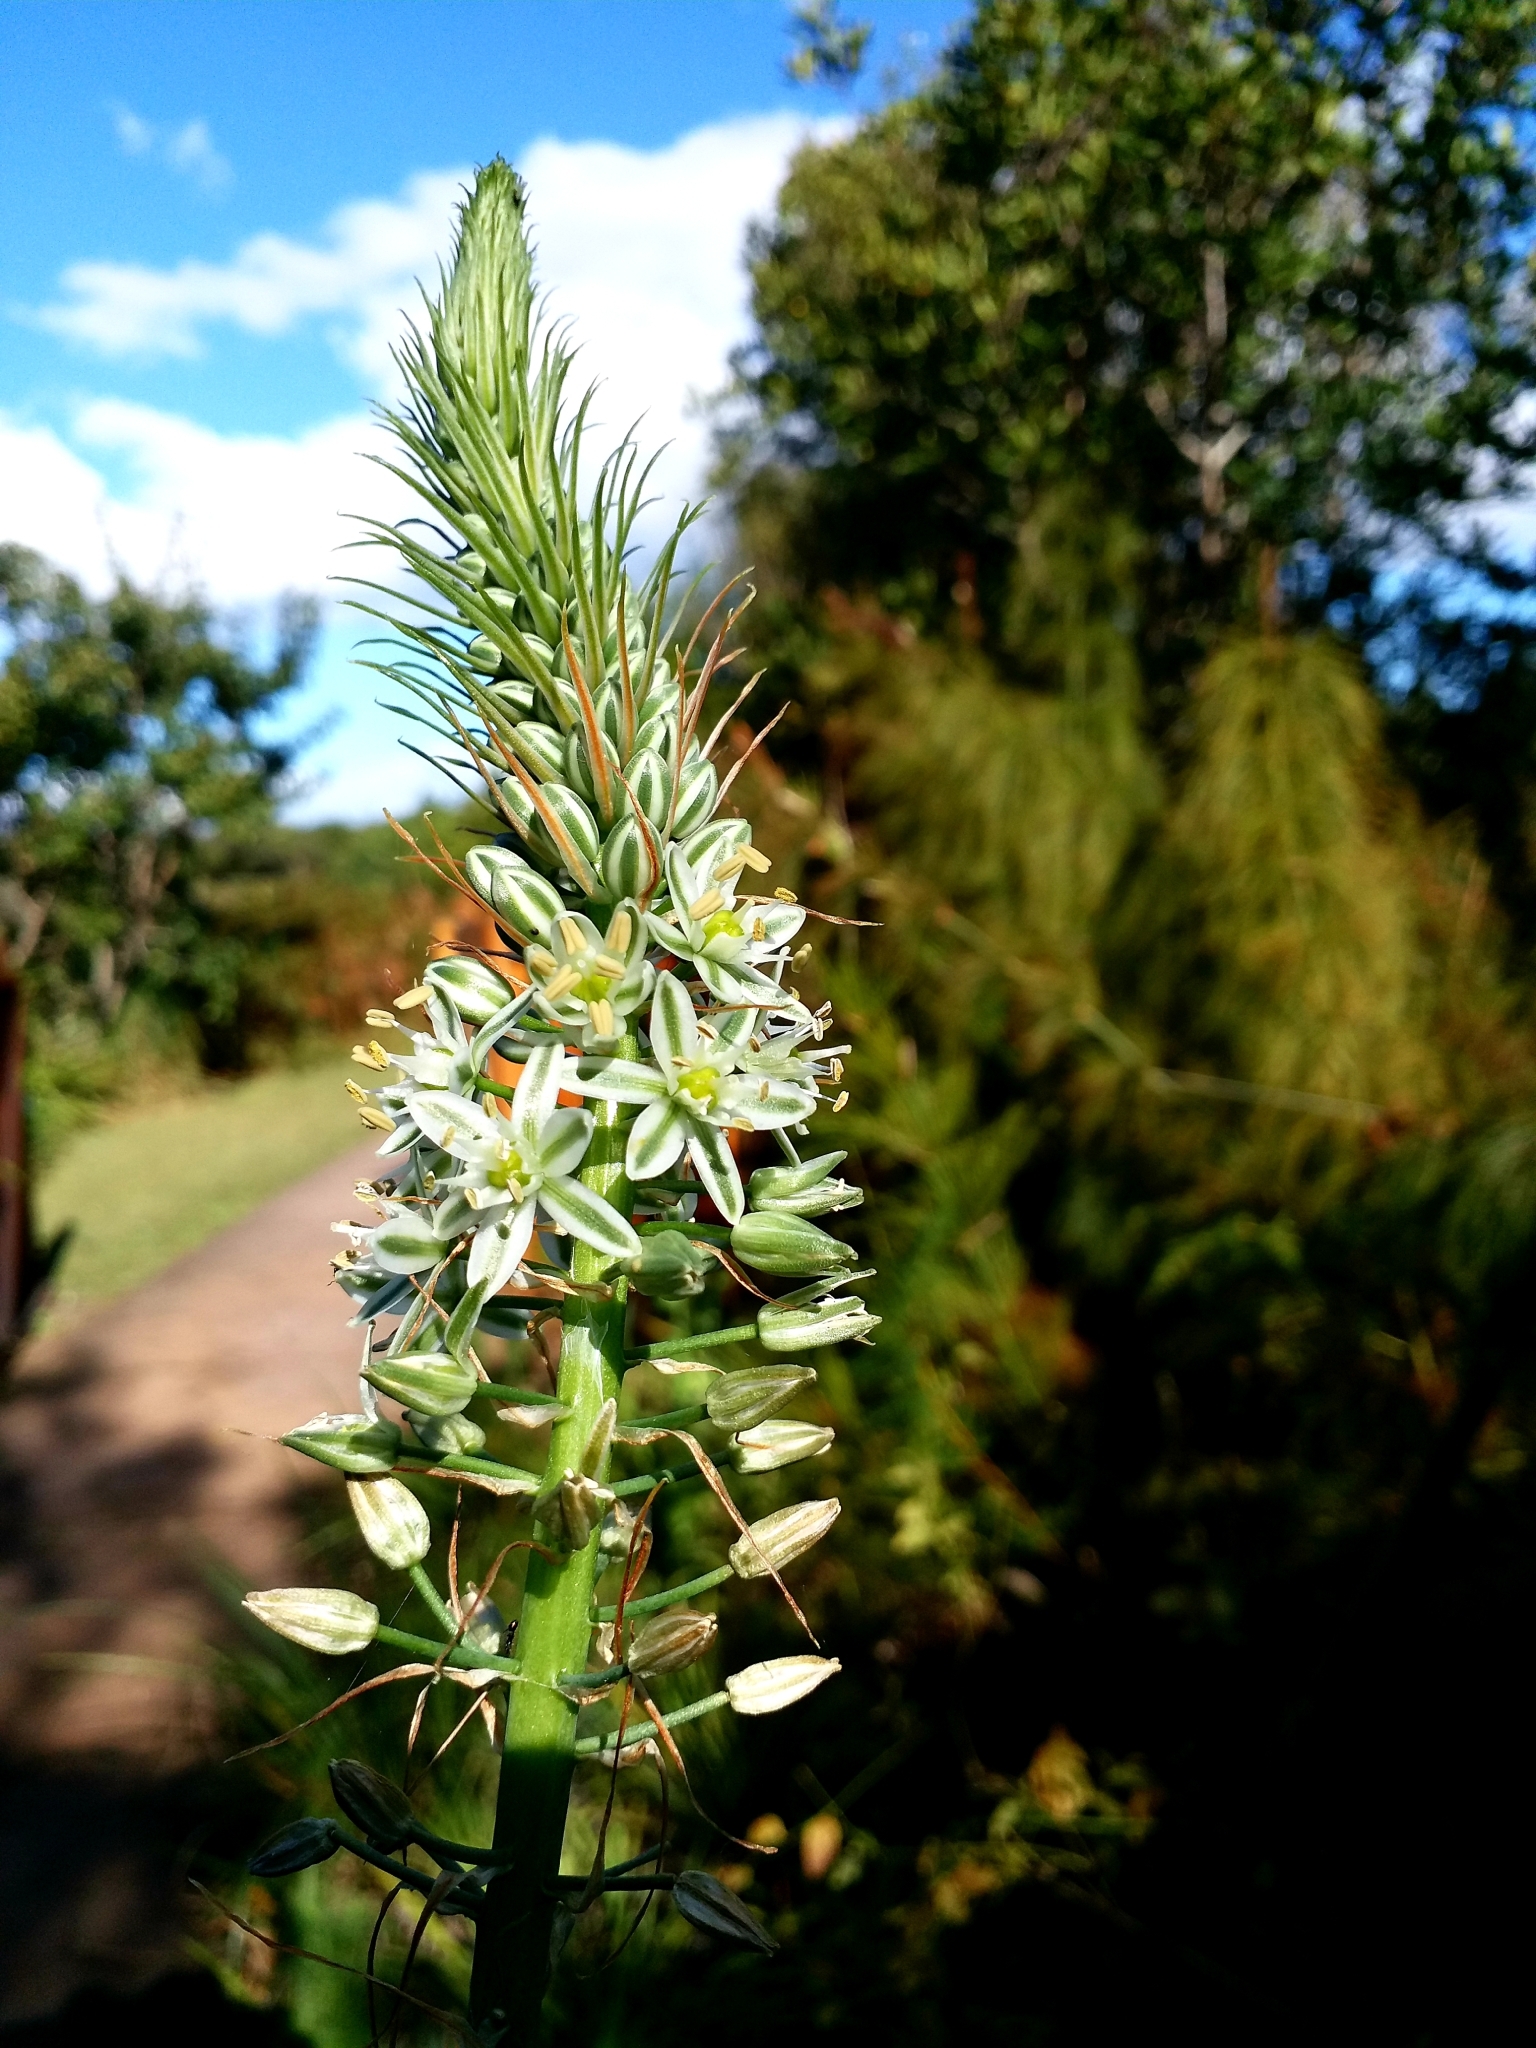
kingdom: Plantae
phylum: Tracheophyta
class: Liliopsida
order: Asparagales
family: Asparagaceae
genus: Albuca
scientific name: Albuca bracteata
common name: Sea-onion
